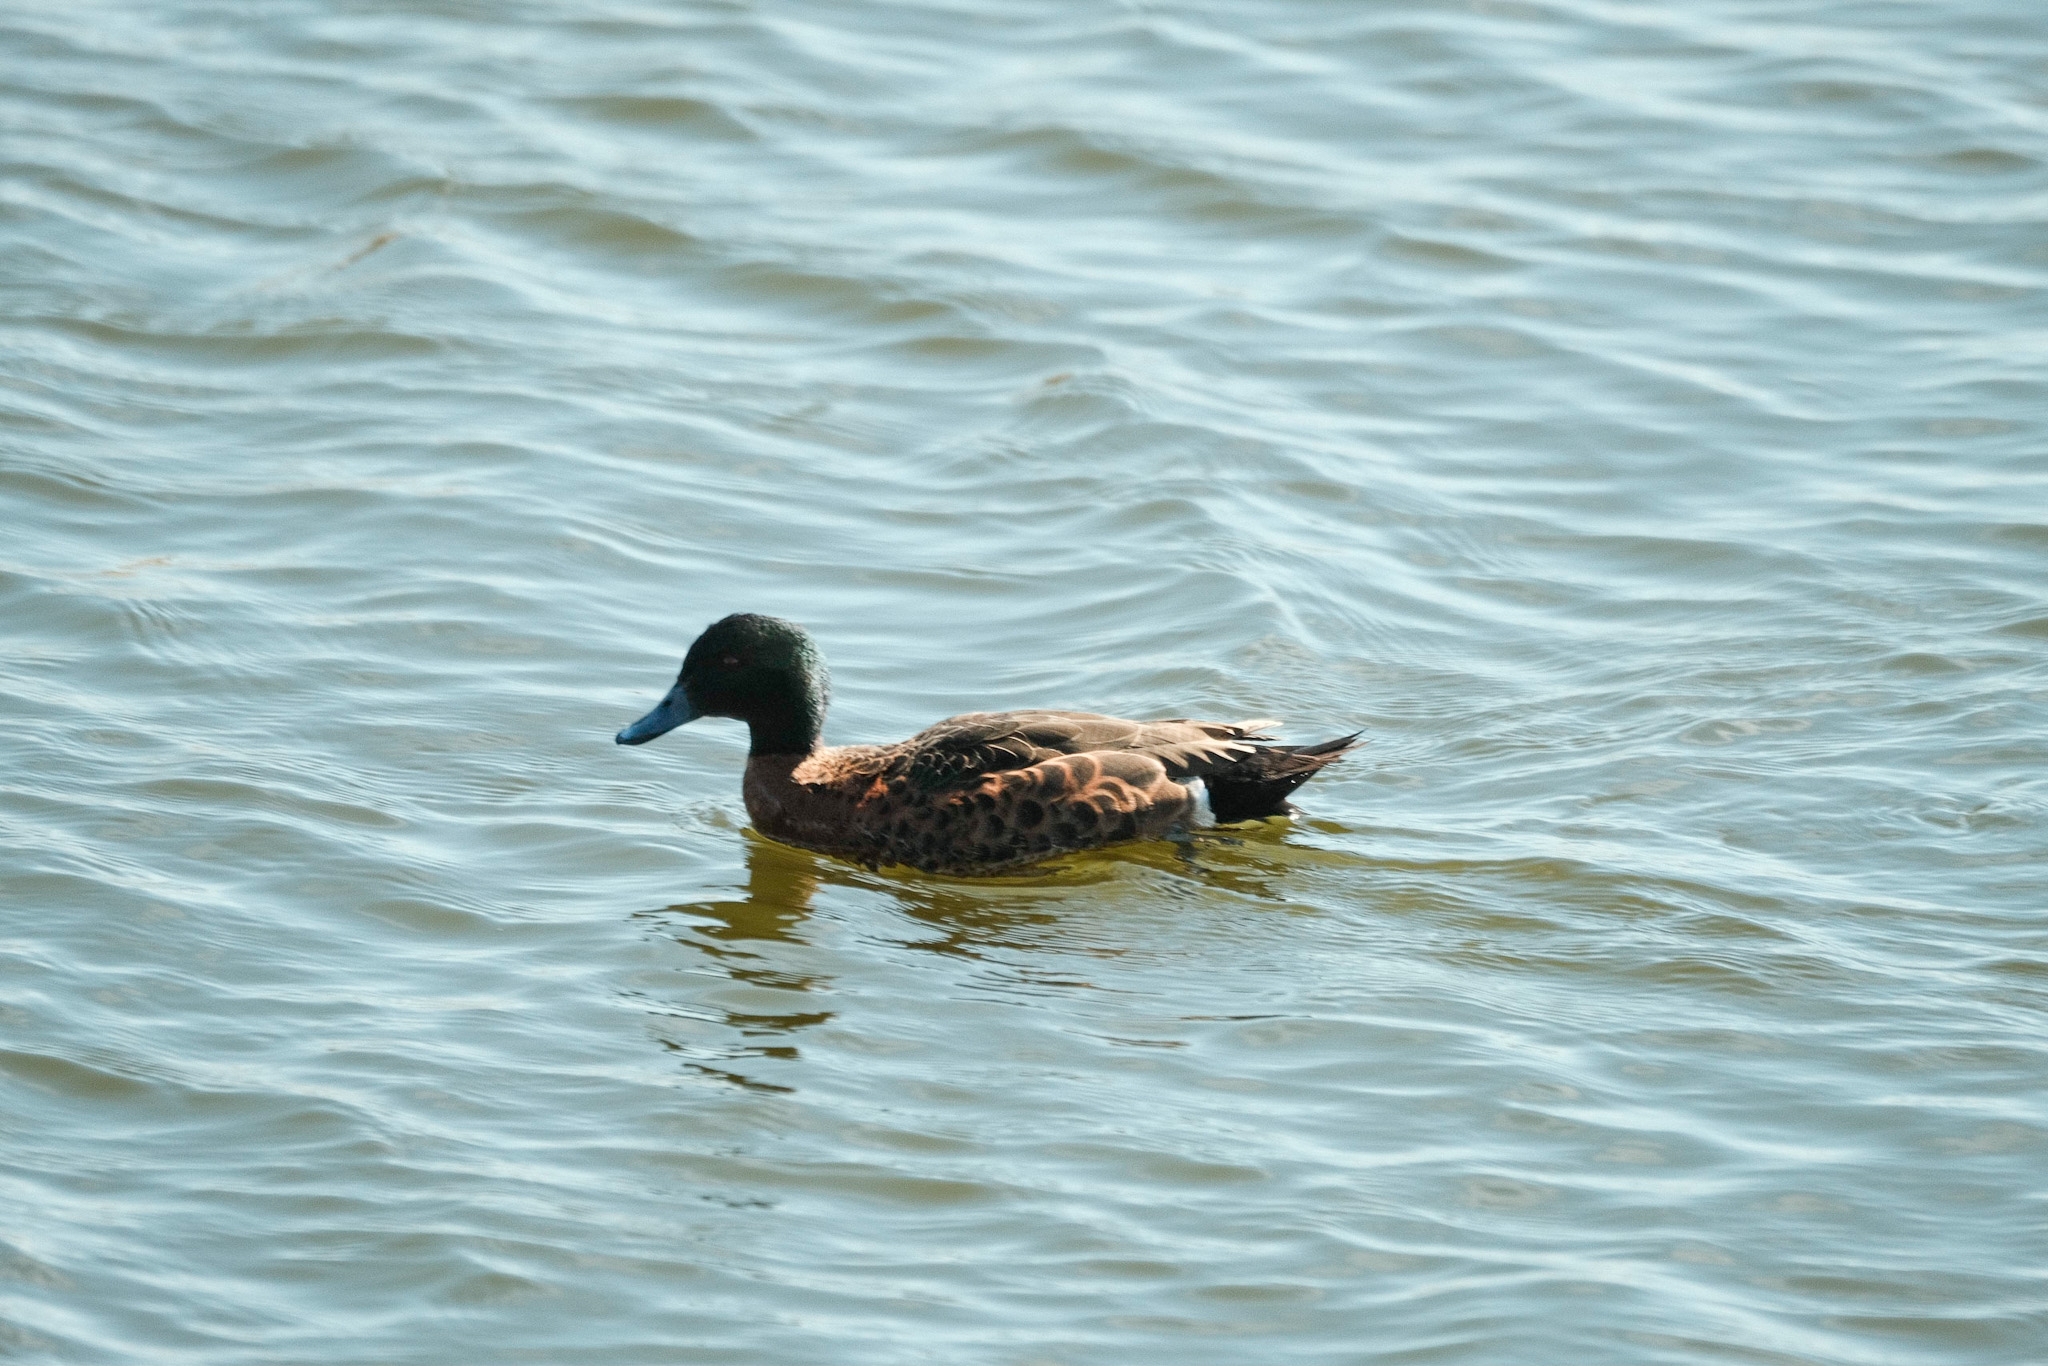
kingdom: Animalia
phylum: Chordata
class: Aves
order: Anseriformes
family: Anatidae
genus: Anas
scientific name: Anas castanea
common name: Chestnut teal
